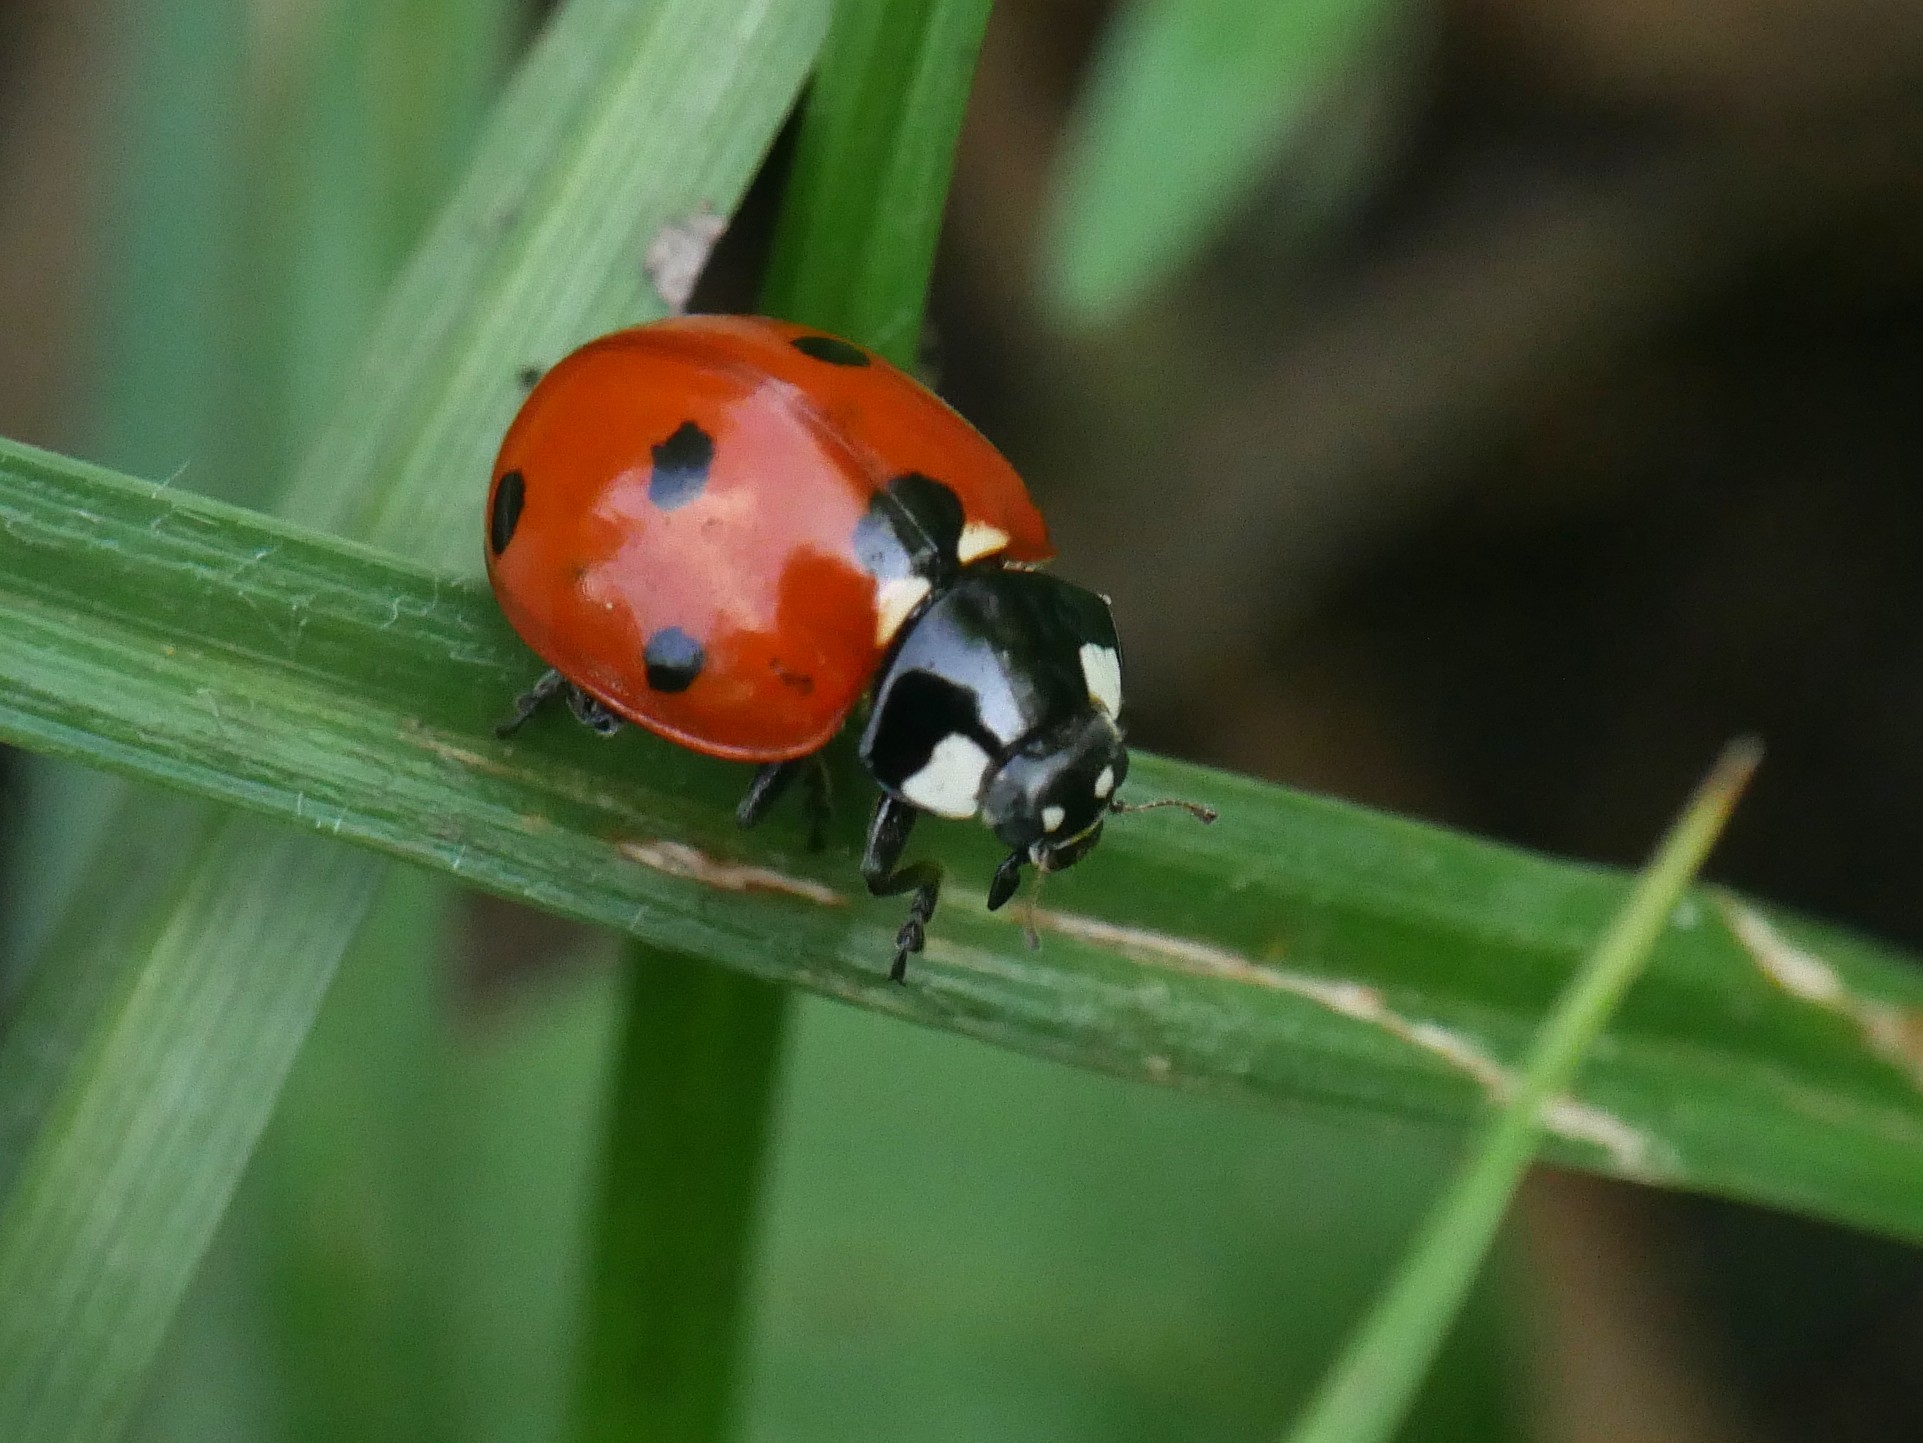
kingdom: Animalia
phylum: Arthropoda
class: Insecta
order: Coleoptera
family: Coccinellidae
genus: Coccinella
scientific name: Coccinella septempunctata
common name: Sevenspotted lady beetle
